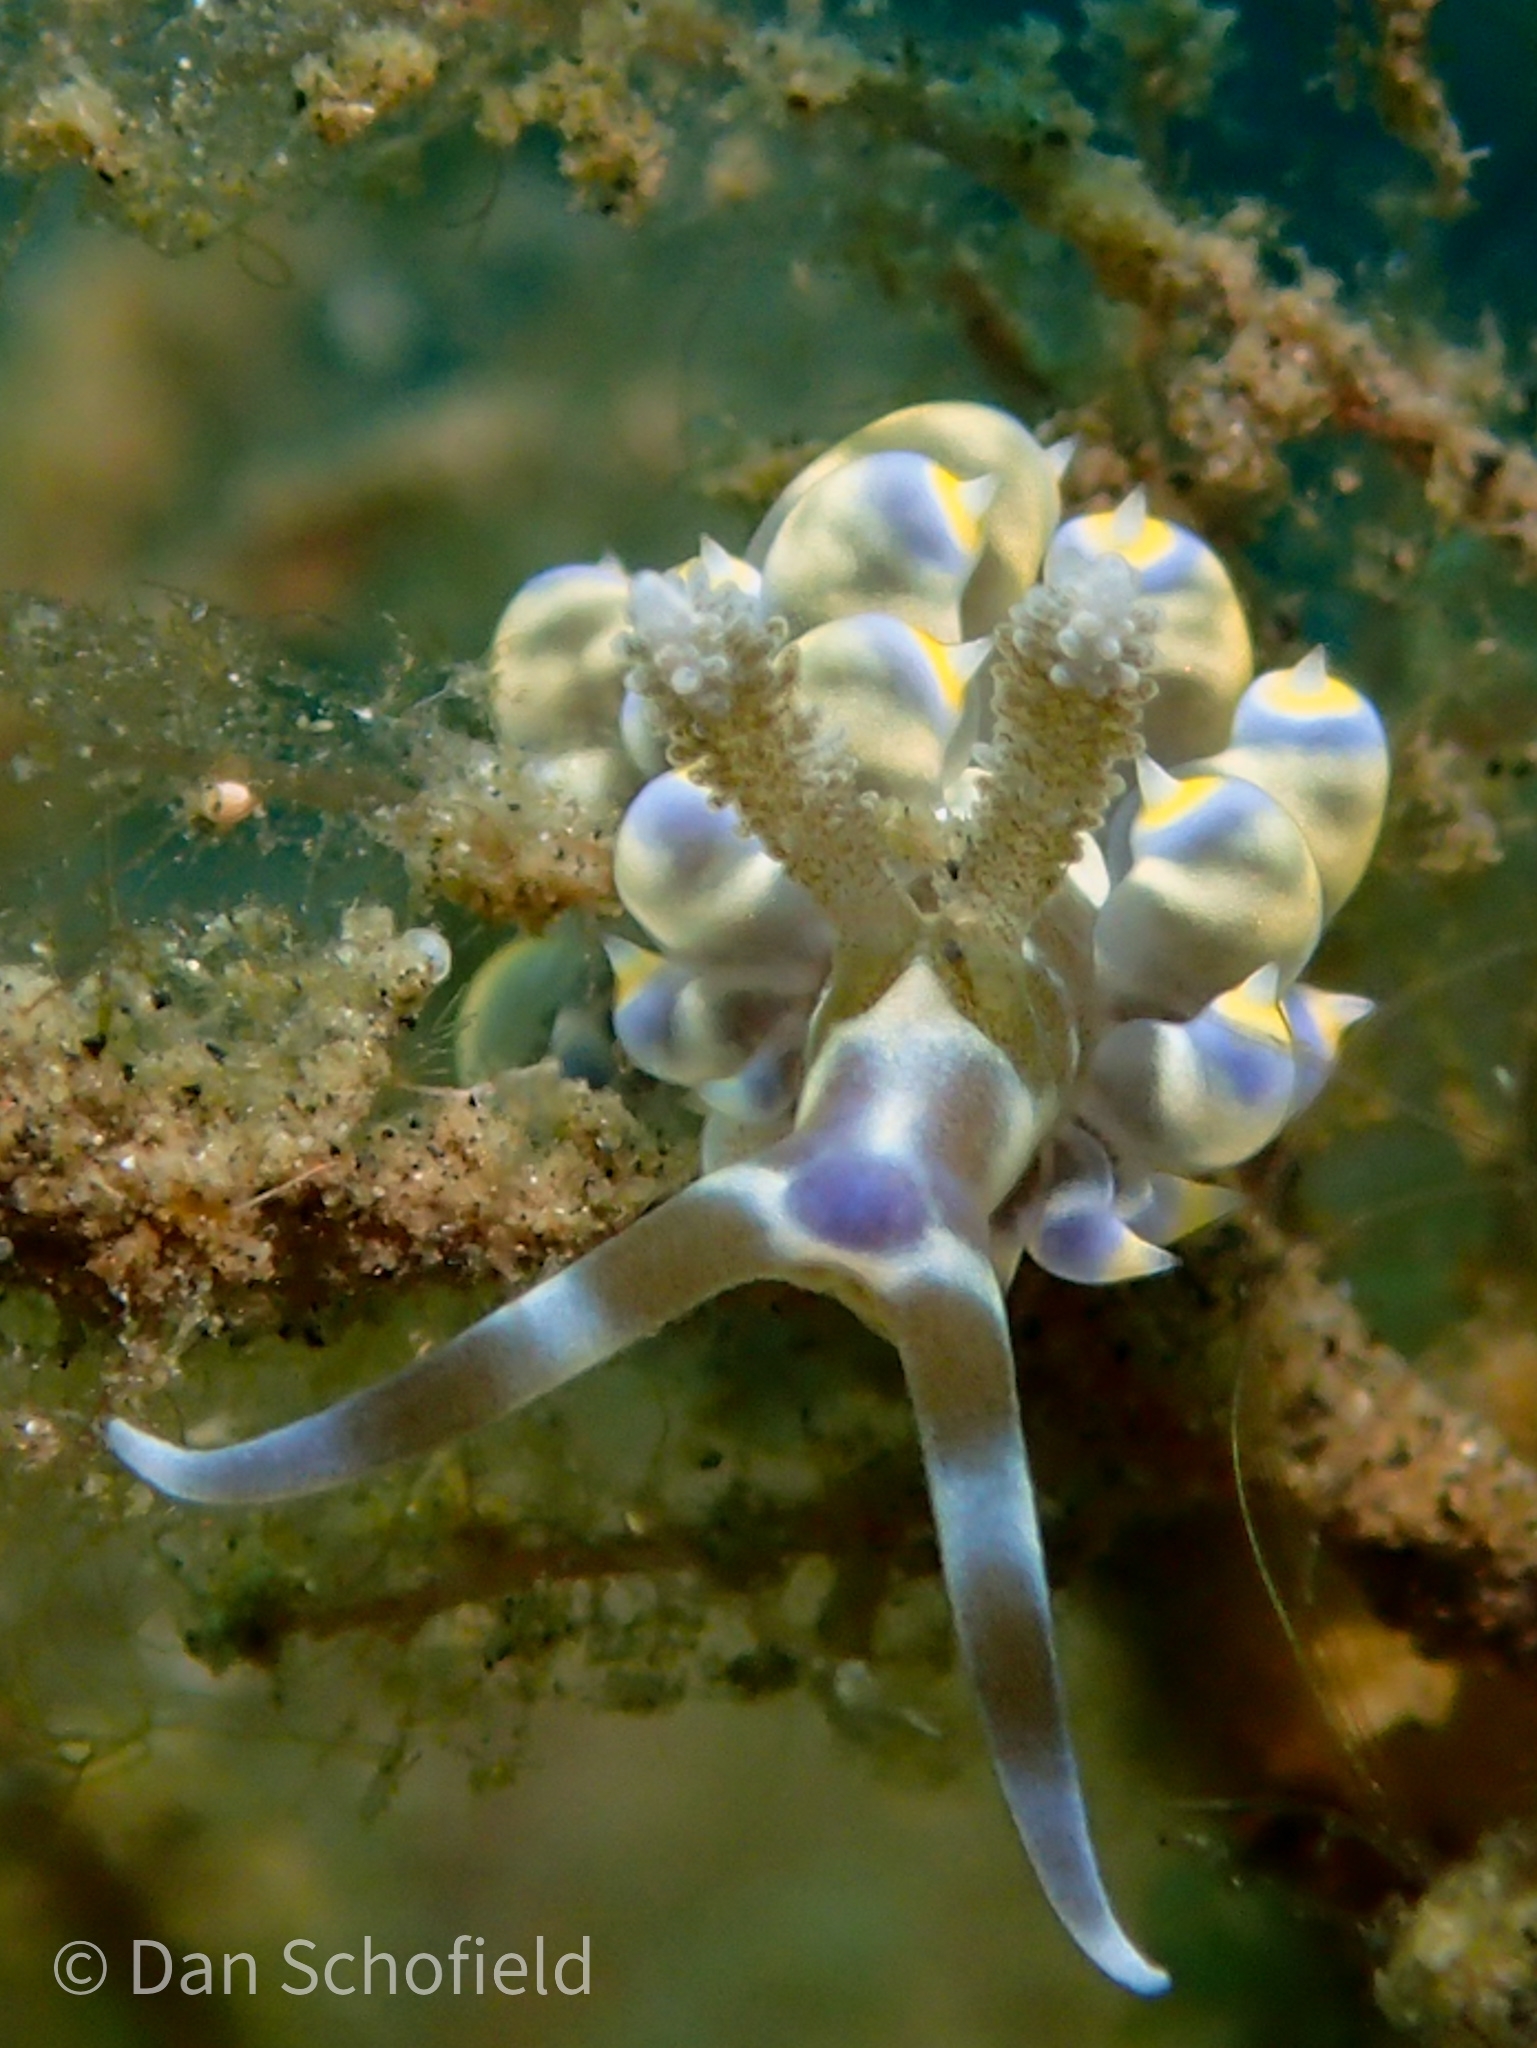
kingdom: Animalia
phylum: Mollusca
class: Gastropoda
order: Nudibranchia
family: Aeolidiidae
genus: Baeolidia
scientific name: Baeolidia moebii
